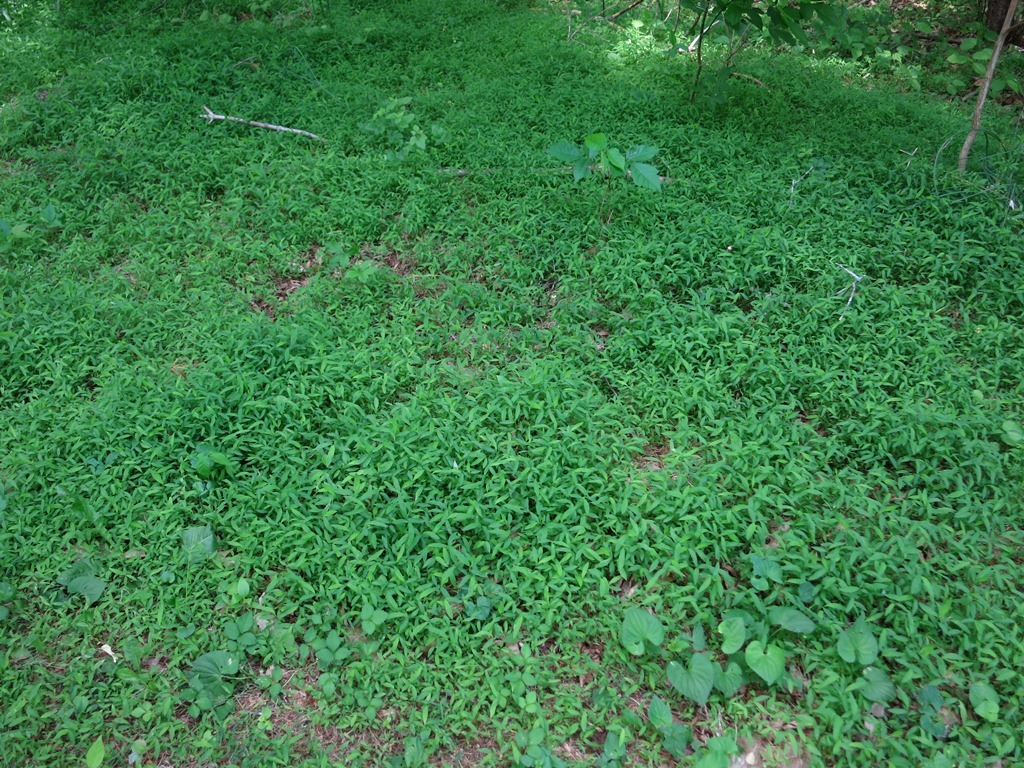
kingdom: Plantae
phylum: Tracheophyta
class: Liliopsida
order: Poales
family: Poaceae
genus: Microstegium
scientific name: Microstegium vimineum
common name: Japanese stiltgrass
